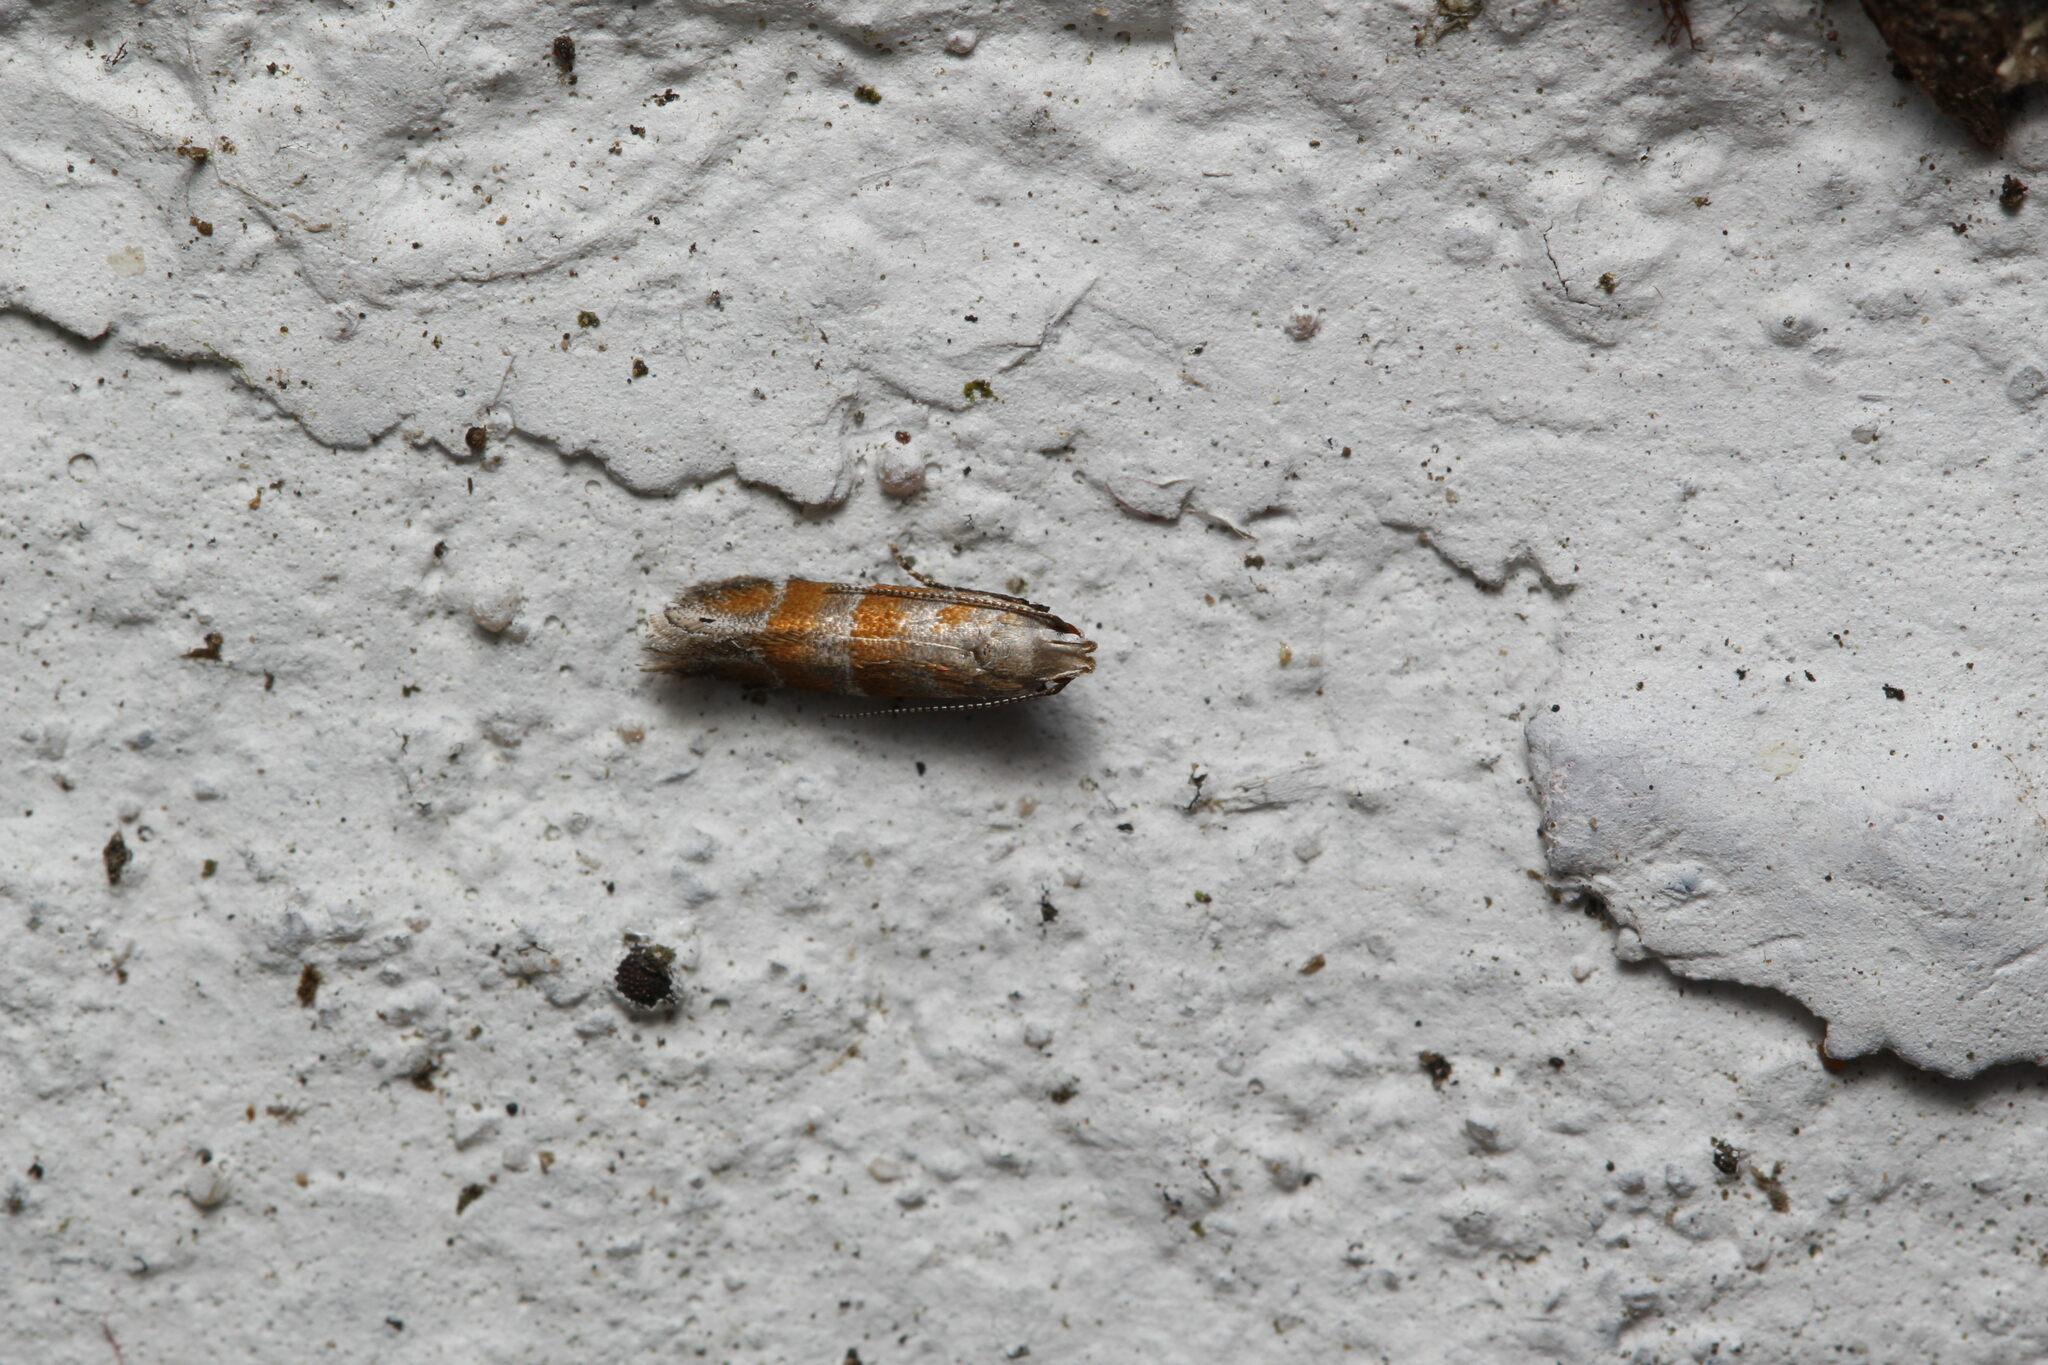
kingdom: Animalia
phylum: Arthropoda
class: Insecta
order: Lepidoptera
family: Gelechiidae
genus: Battaristis
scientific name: Battaristis vittella
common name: Orange stripe-backed moth
